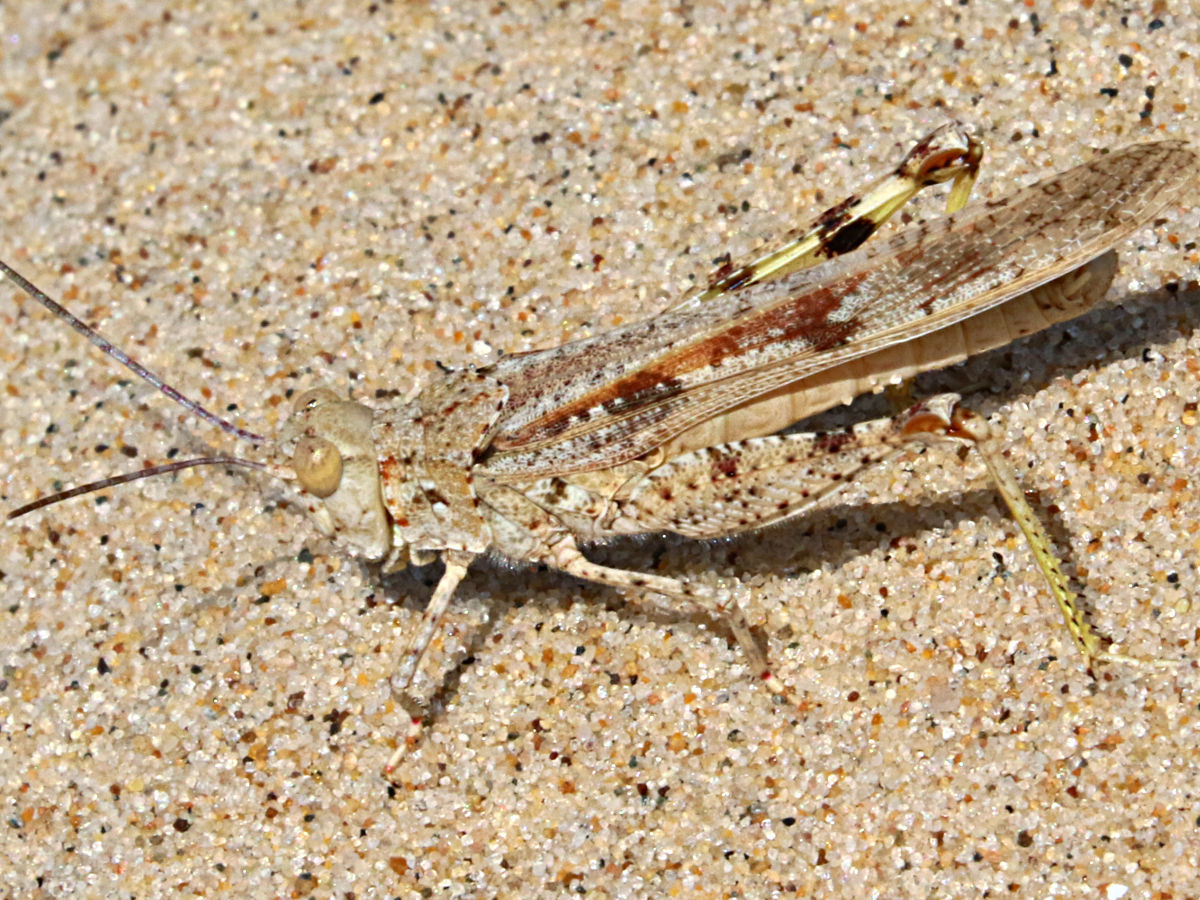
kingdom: Animalia
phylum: Arthropoda
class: Insecta
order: Orthoptera
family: Acrididae
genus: Trimerotropis
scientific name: Trimerotropis maritima
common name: Seaside locust
